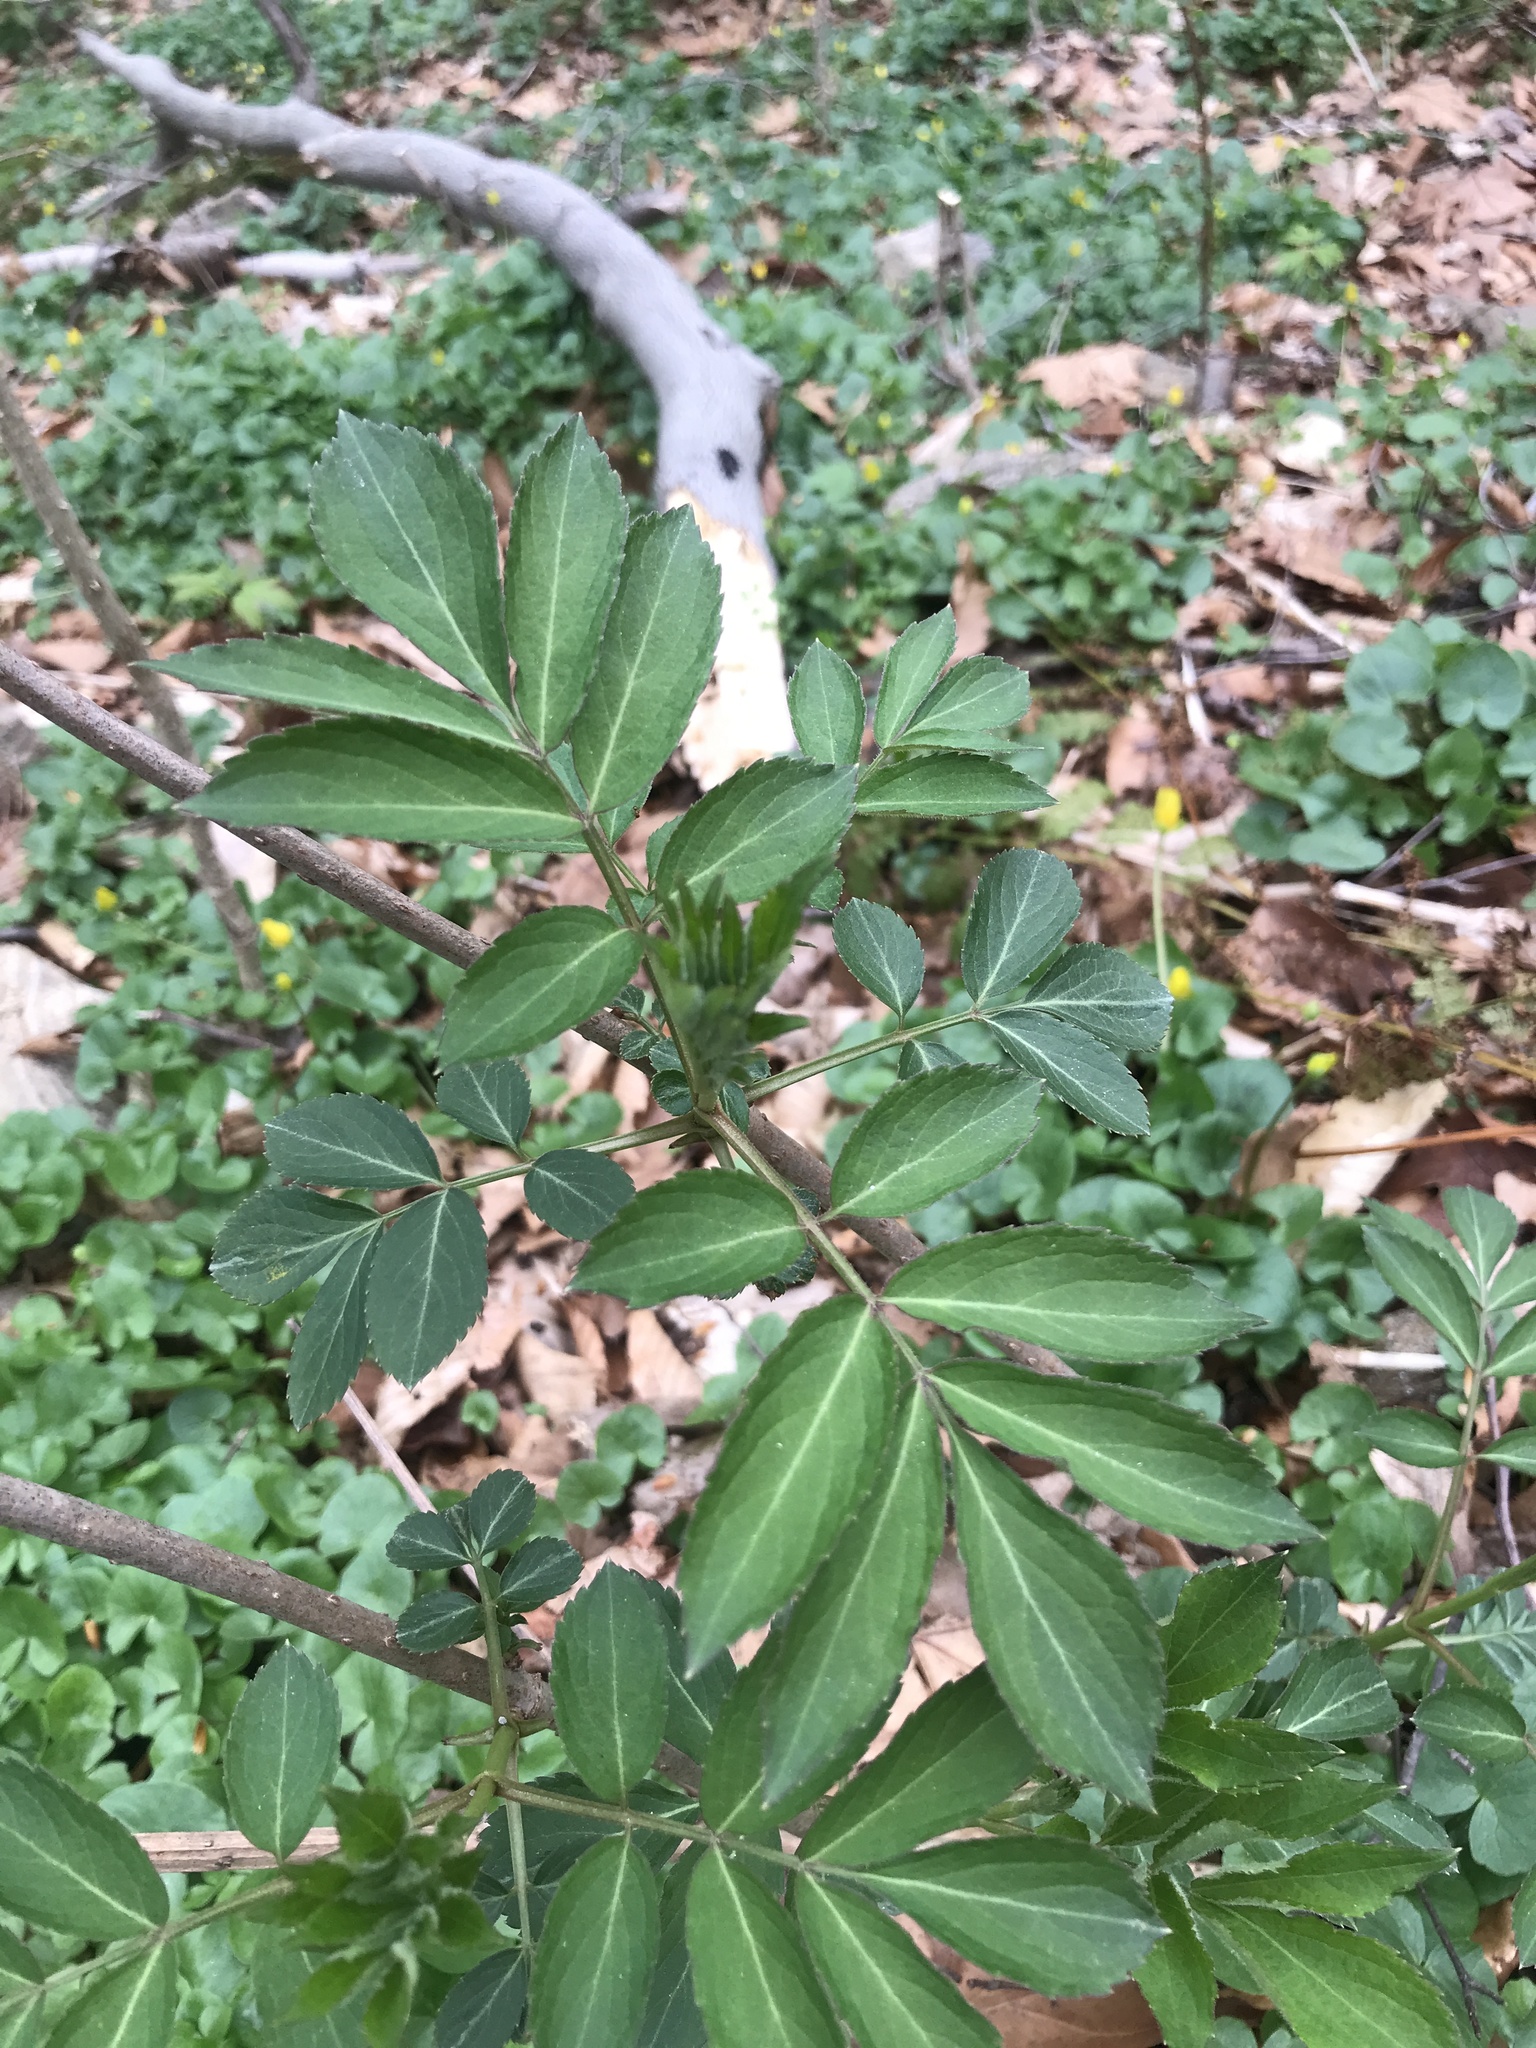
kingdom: Plantae
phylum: Tracheophyta
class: Magnoliopsida
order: Dipsacales
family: Viburnaceae
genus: Sambucus
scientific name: Sambucus canadensis
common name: American elder
